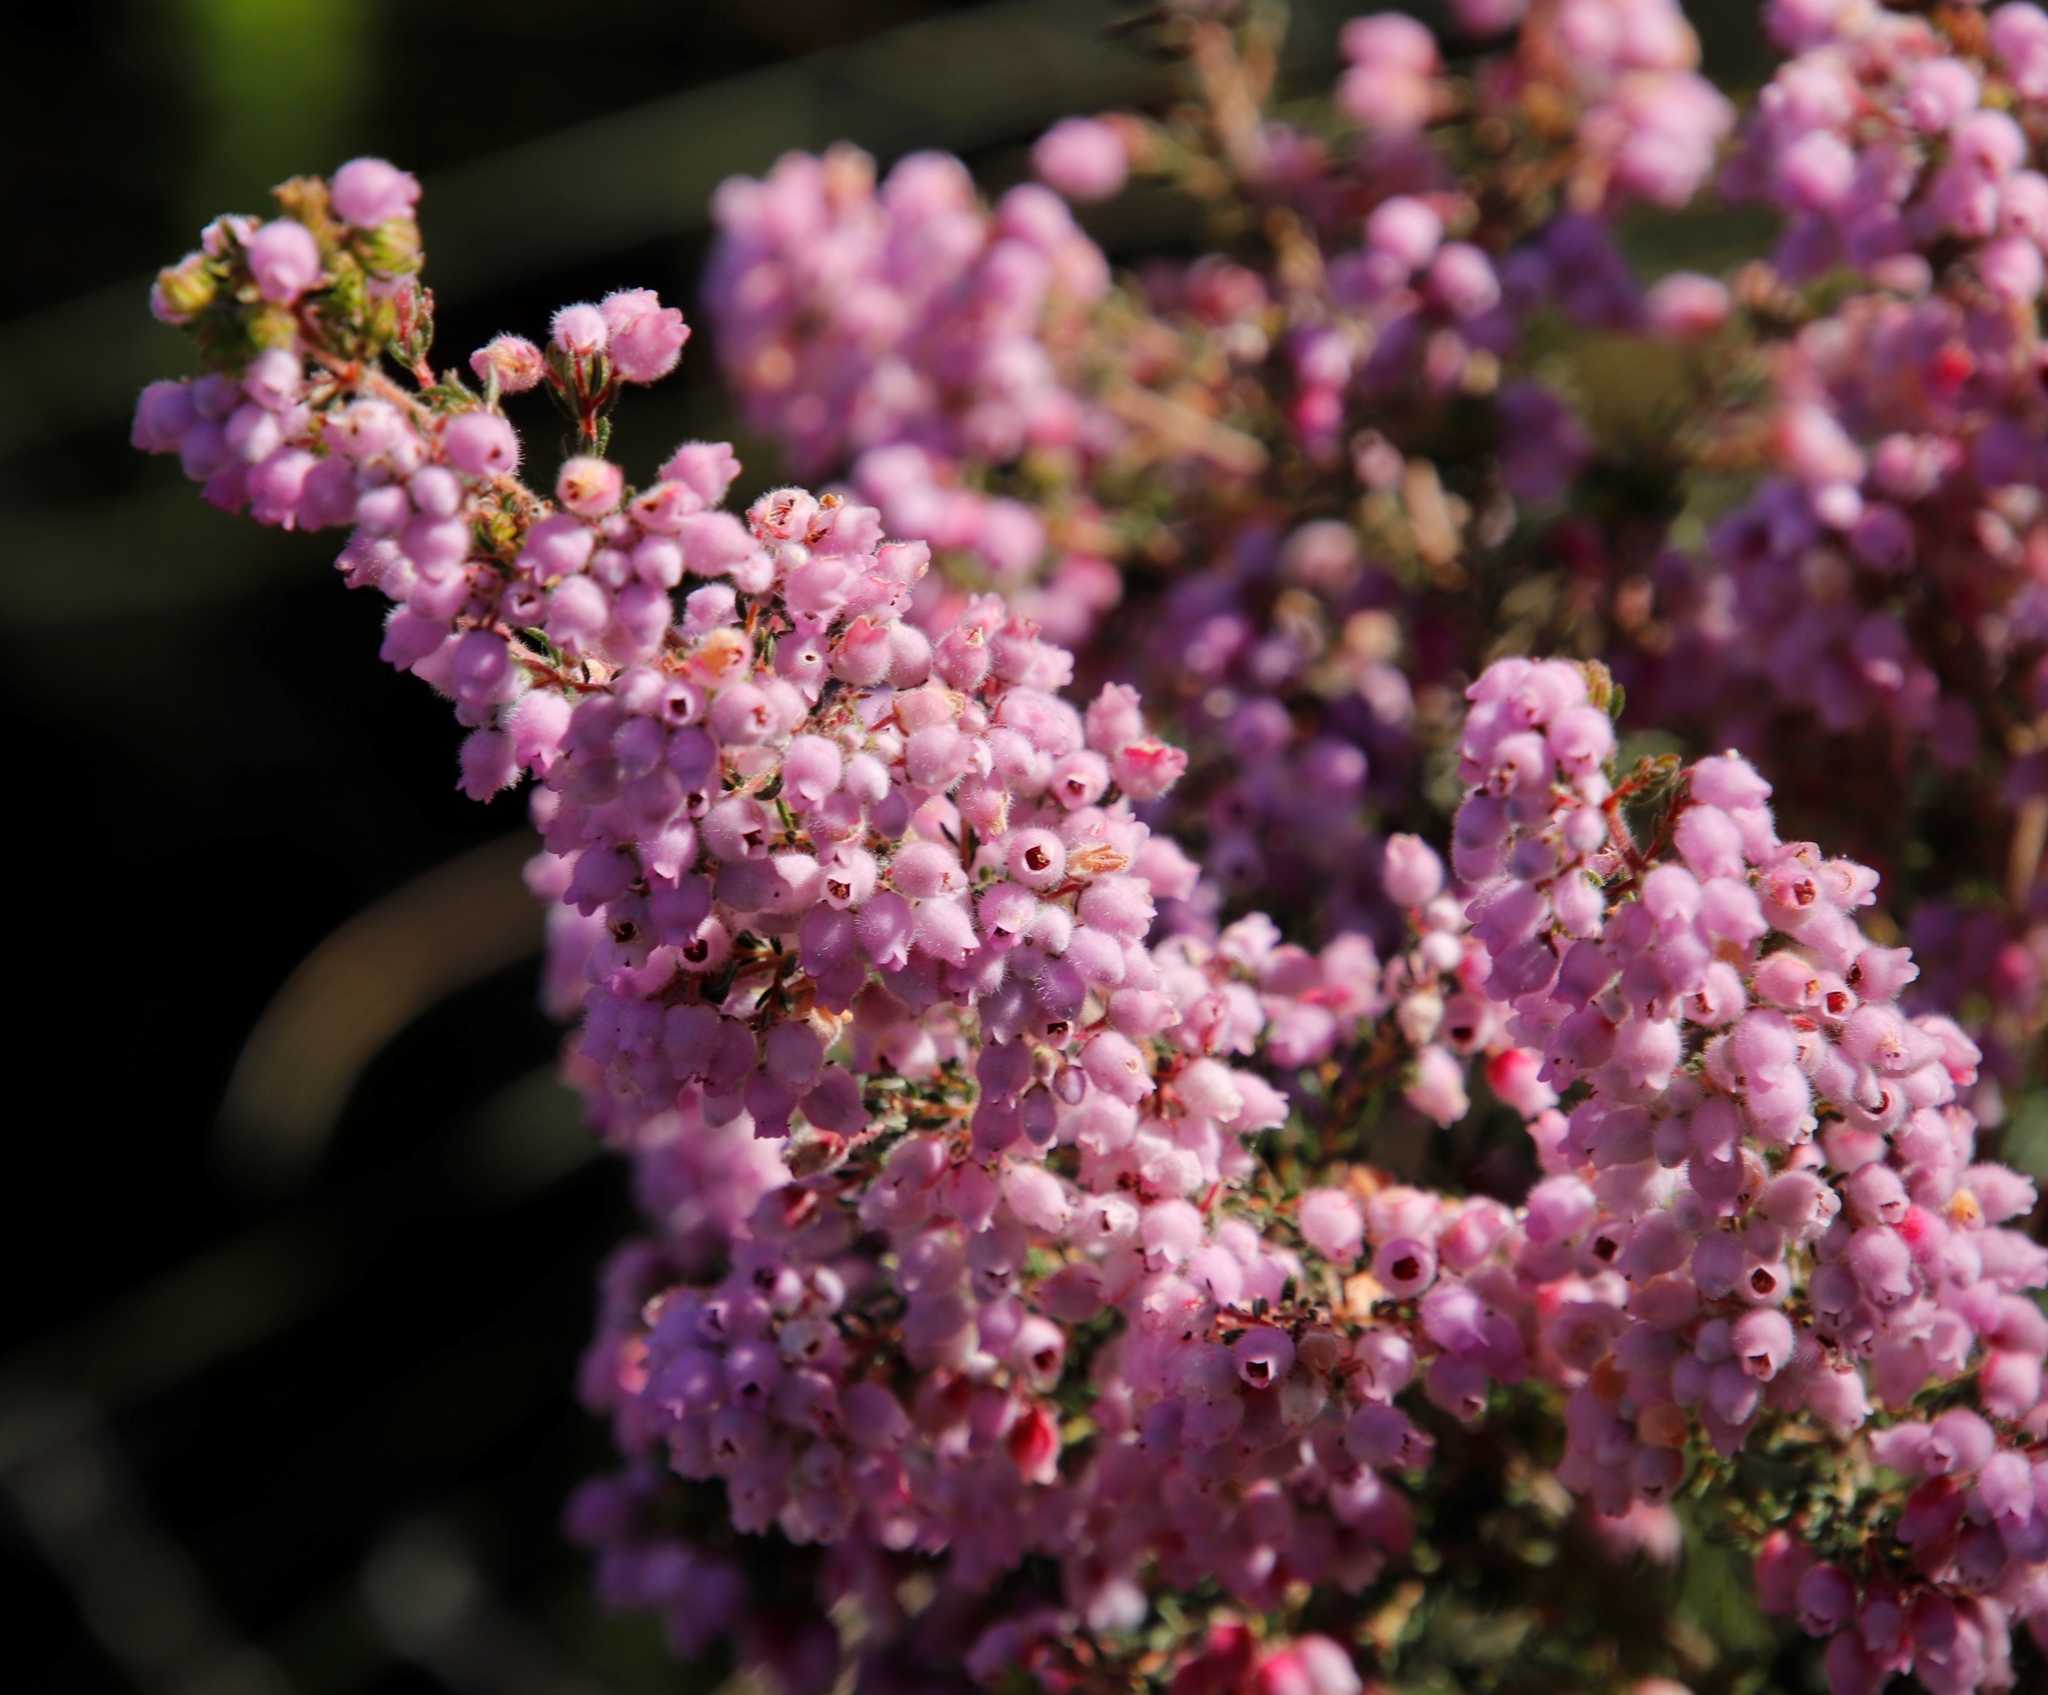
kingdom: Plantae
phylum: Tracheophyta
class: Magnoliopsida
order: Ericales
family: Ericaceae
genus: Erica
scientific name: Erica hirtiflora
